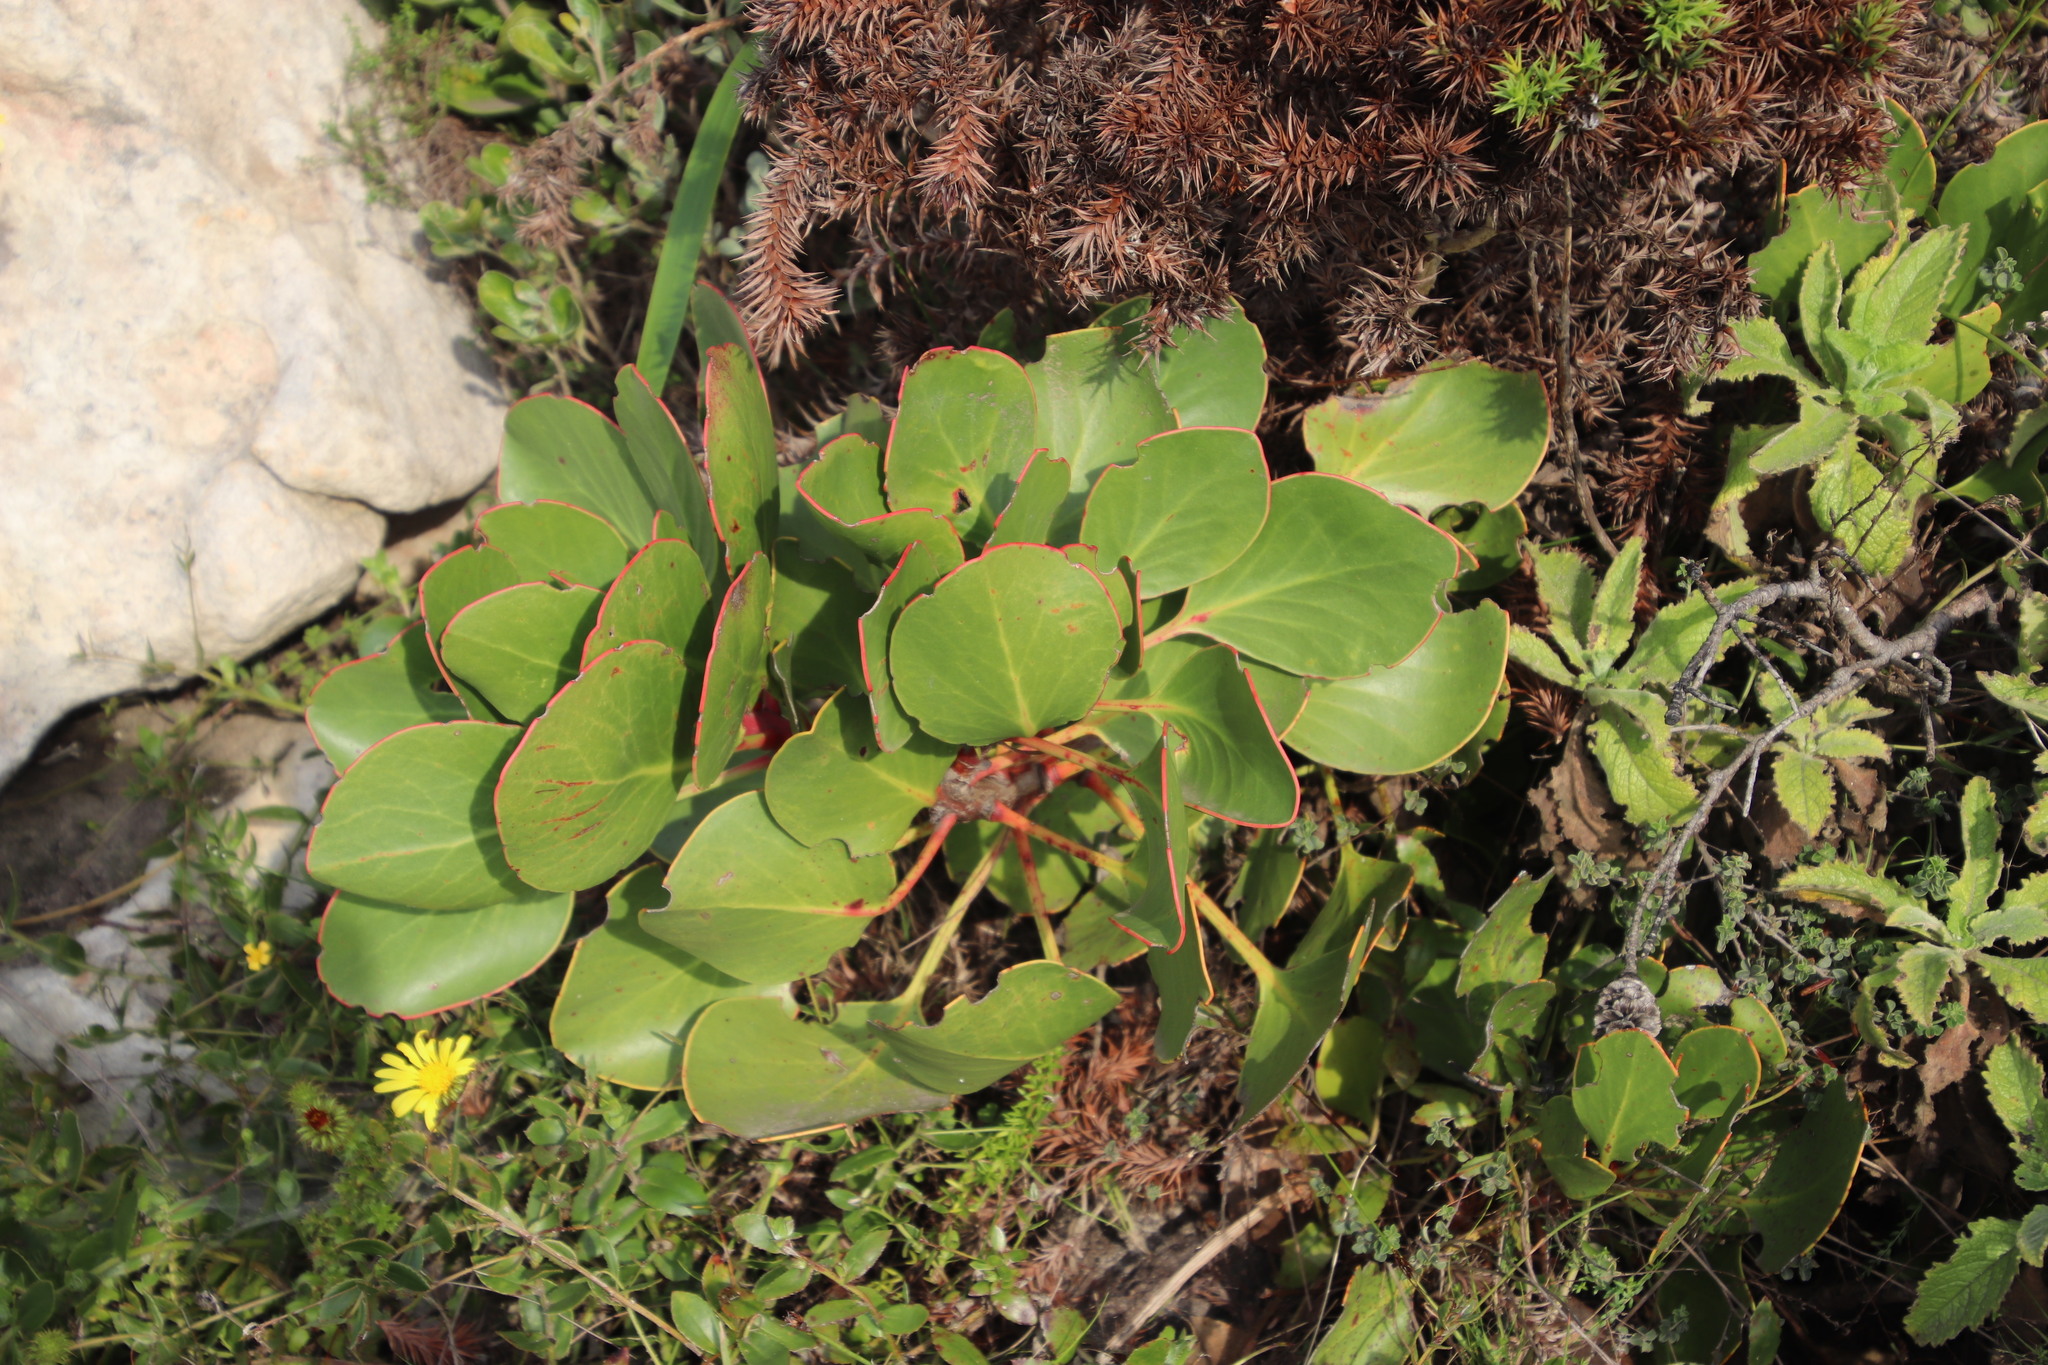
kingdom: Plantae
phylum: Tracheophyta
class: Magnoliopsida
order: Proteales
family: Proteaceae
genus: Protea
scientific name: Protea cynaroides
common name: King protea
